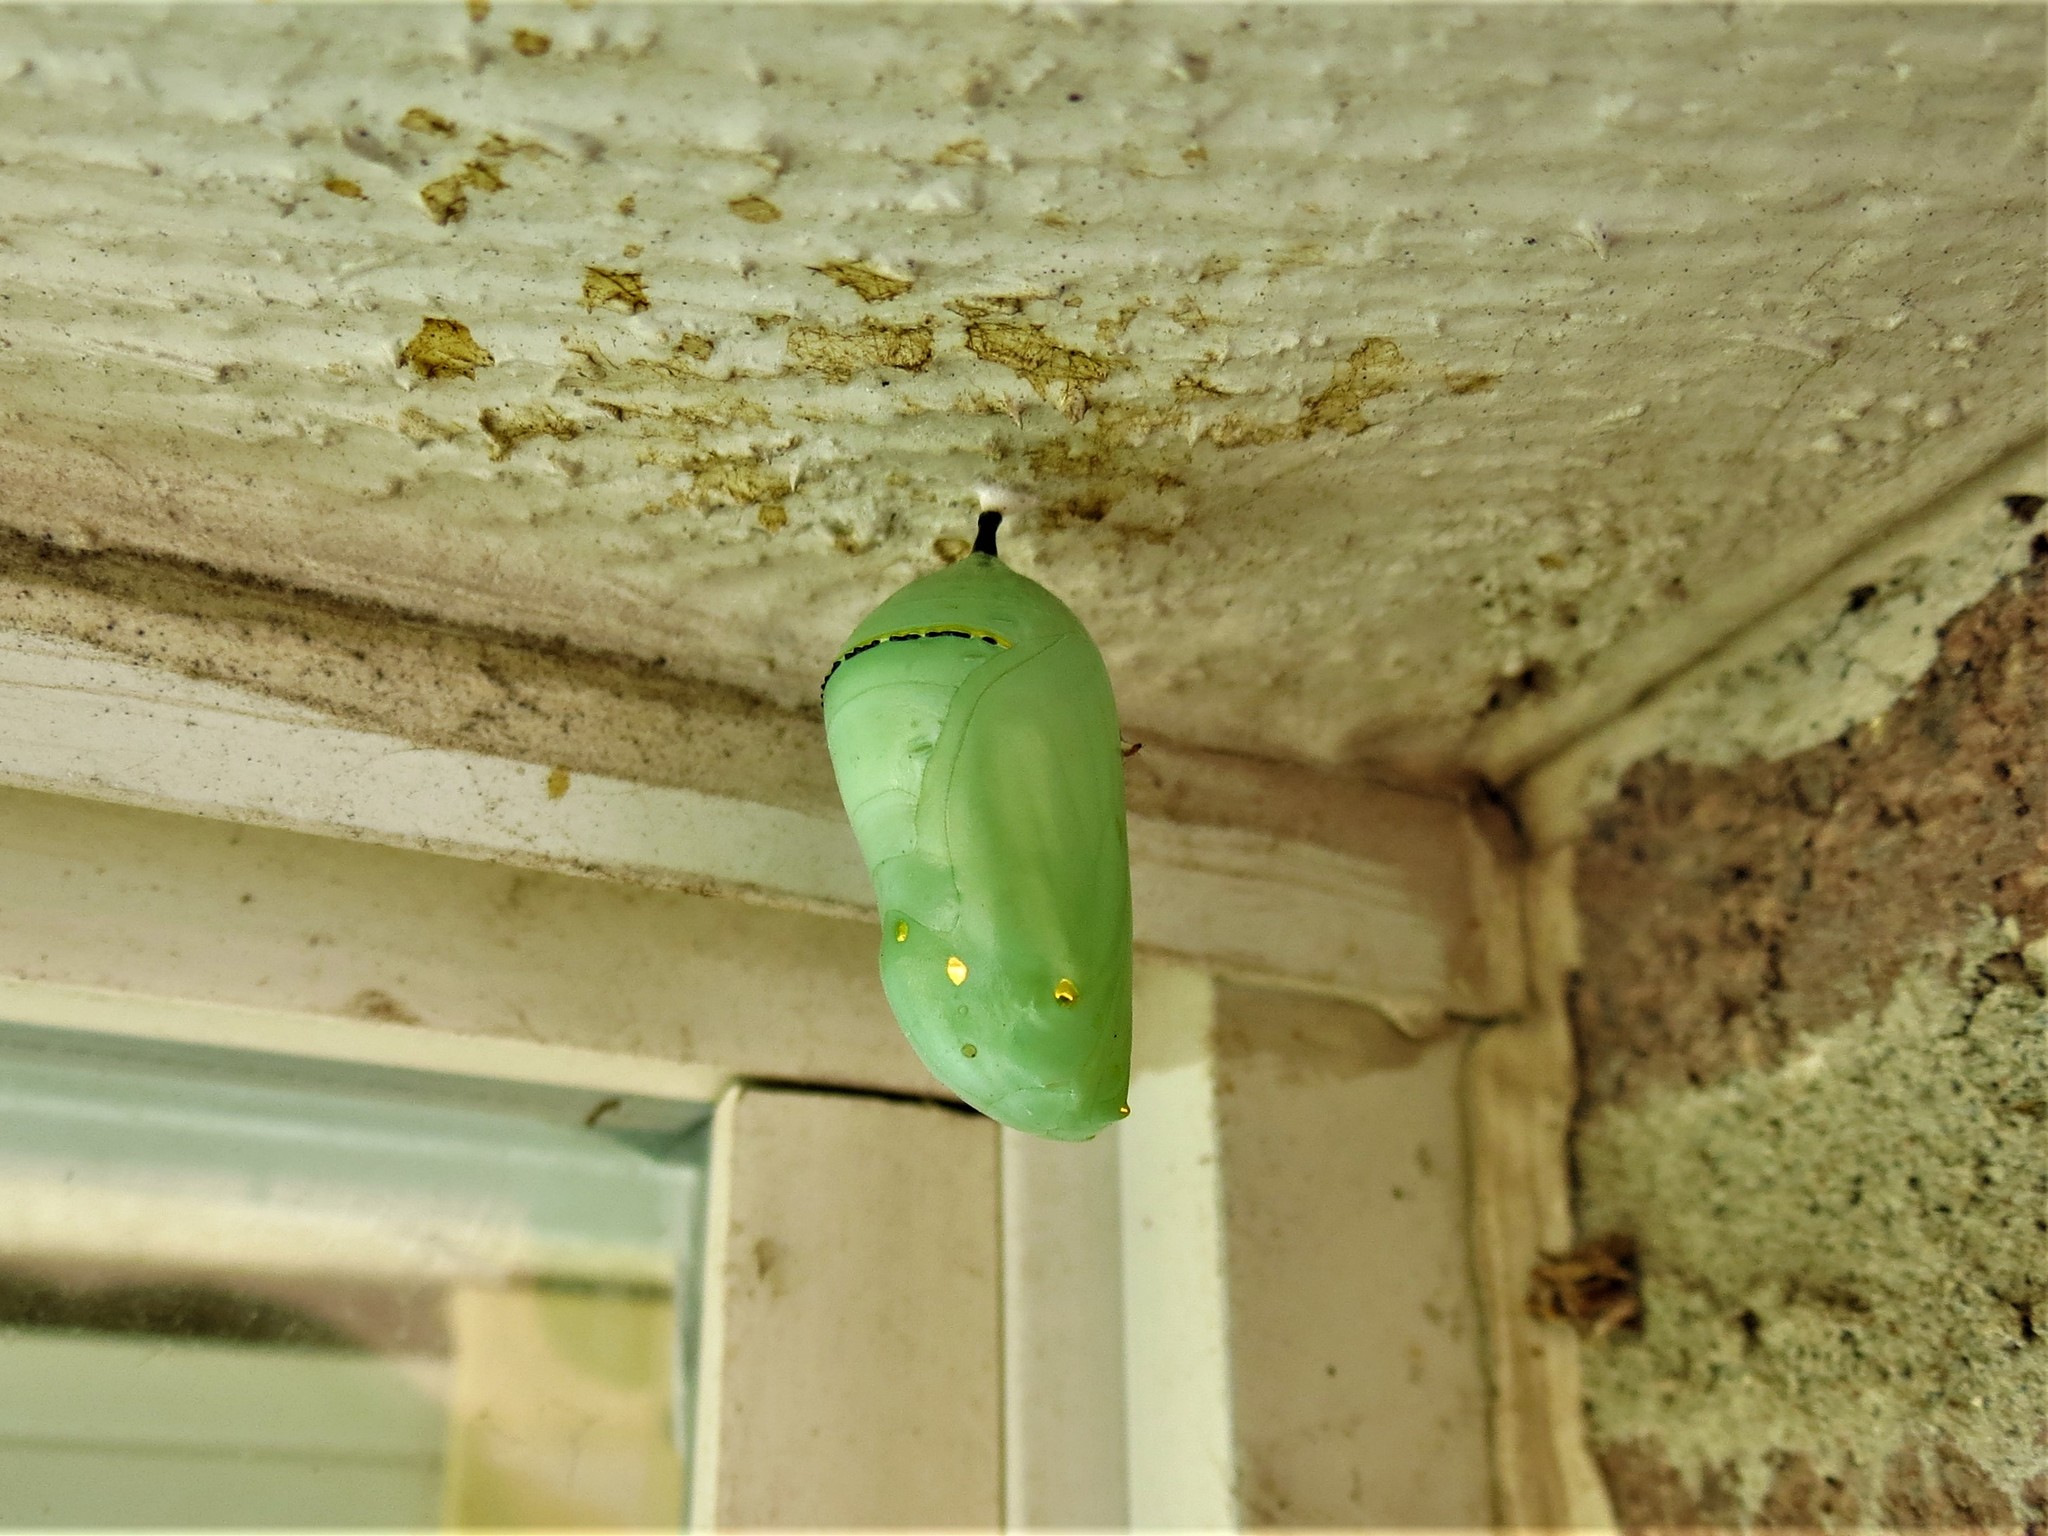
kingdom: Animalia
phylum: Arthropoda
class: Insecta
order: Lepidoptera
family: Nymphalidae
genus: Danaus
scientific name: Danaus plexippus
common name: Monarch
